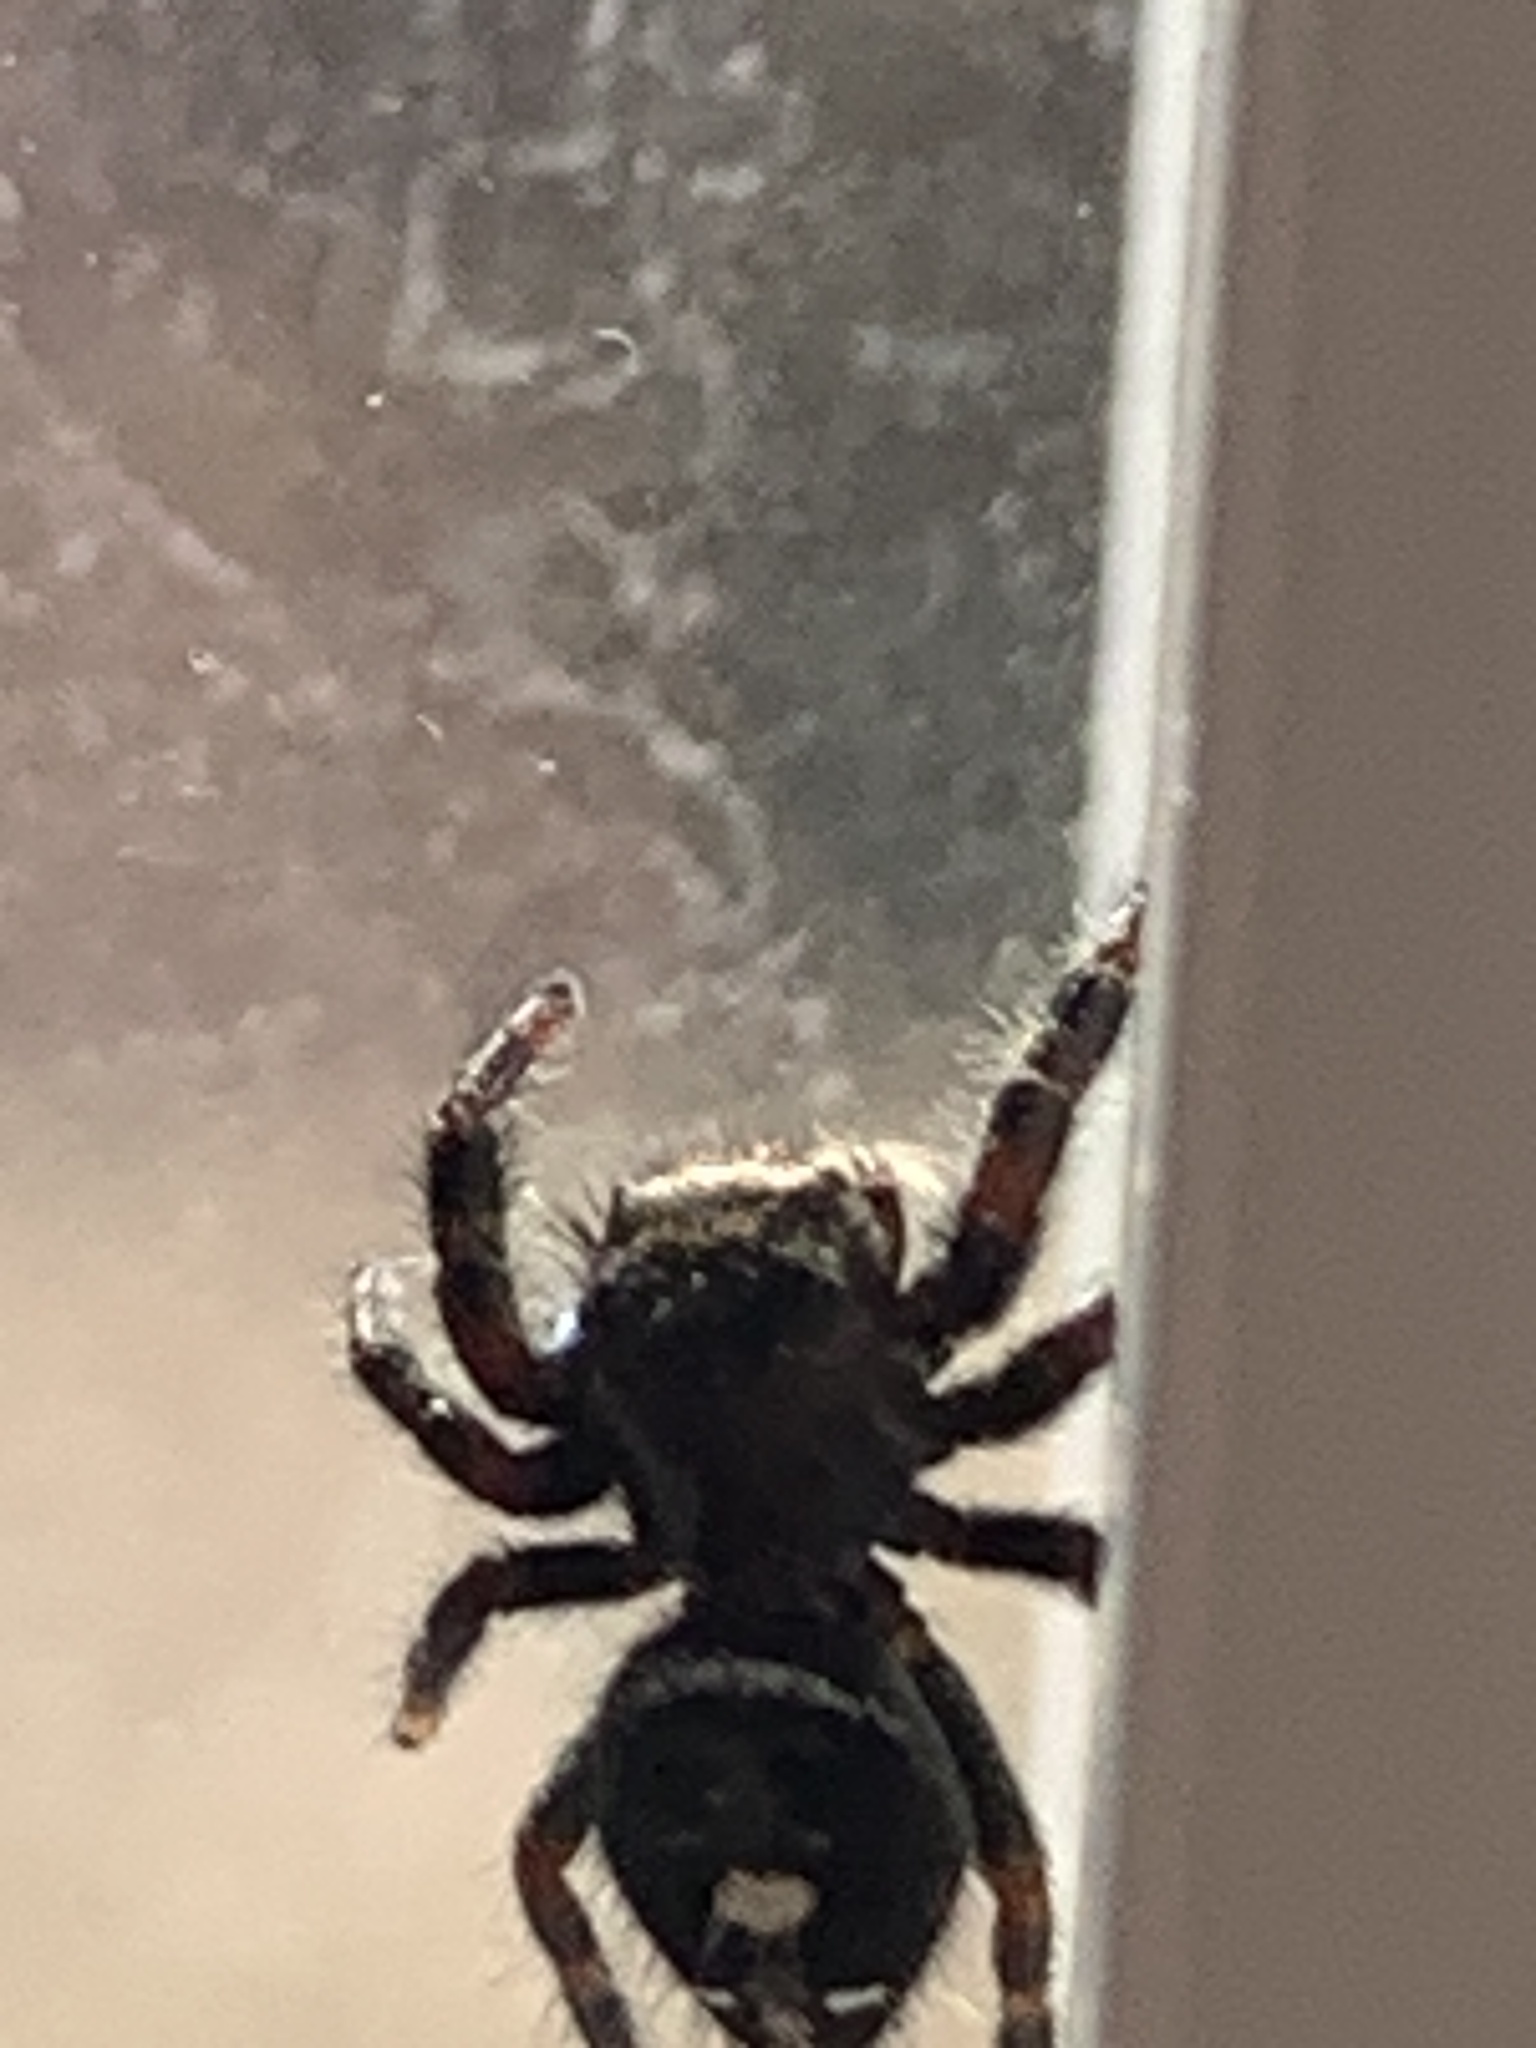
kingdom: Animalia
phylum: Arthropoda
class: Arachnida
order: Araneae
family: Salticidae
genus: Phidippus
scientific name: Phidippus audax
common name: Bold jumper
